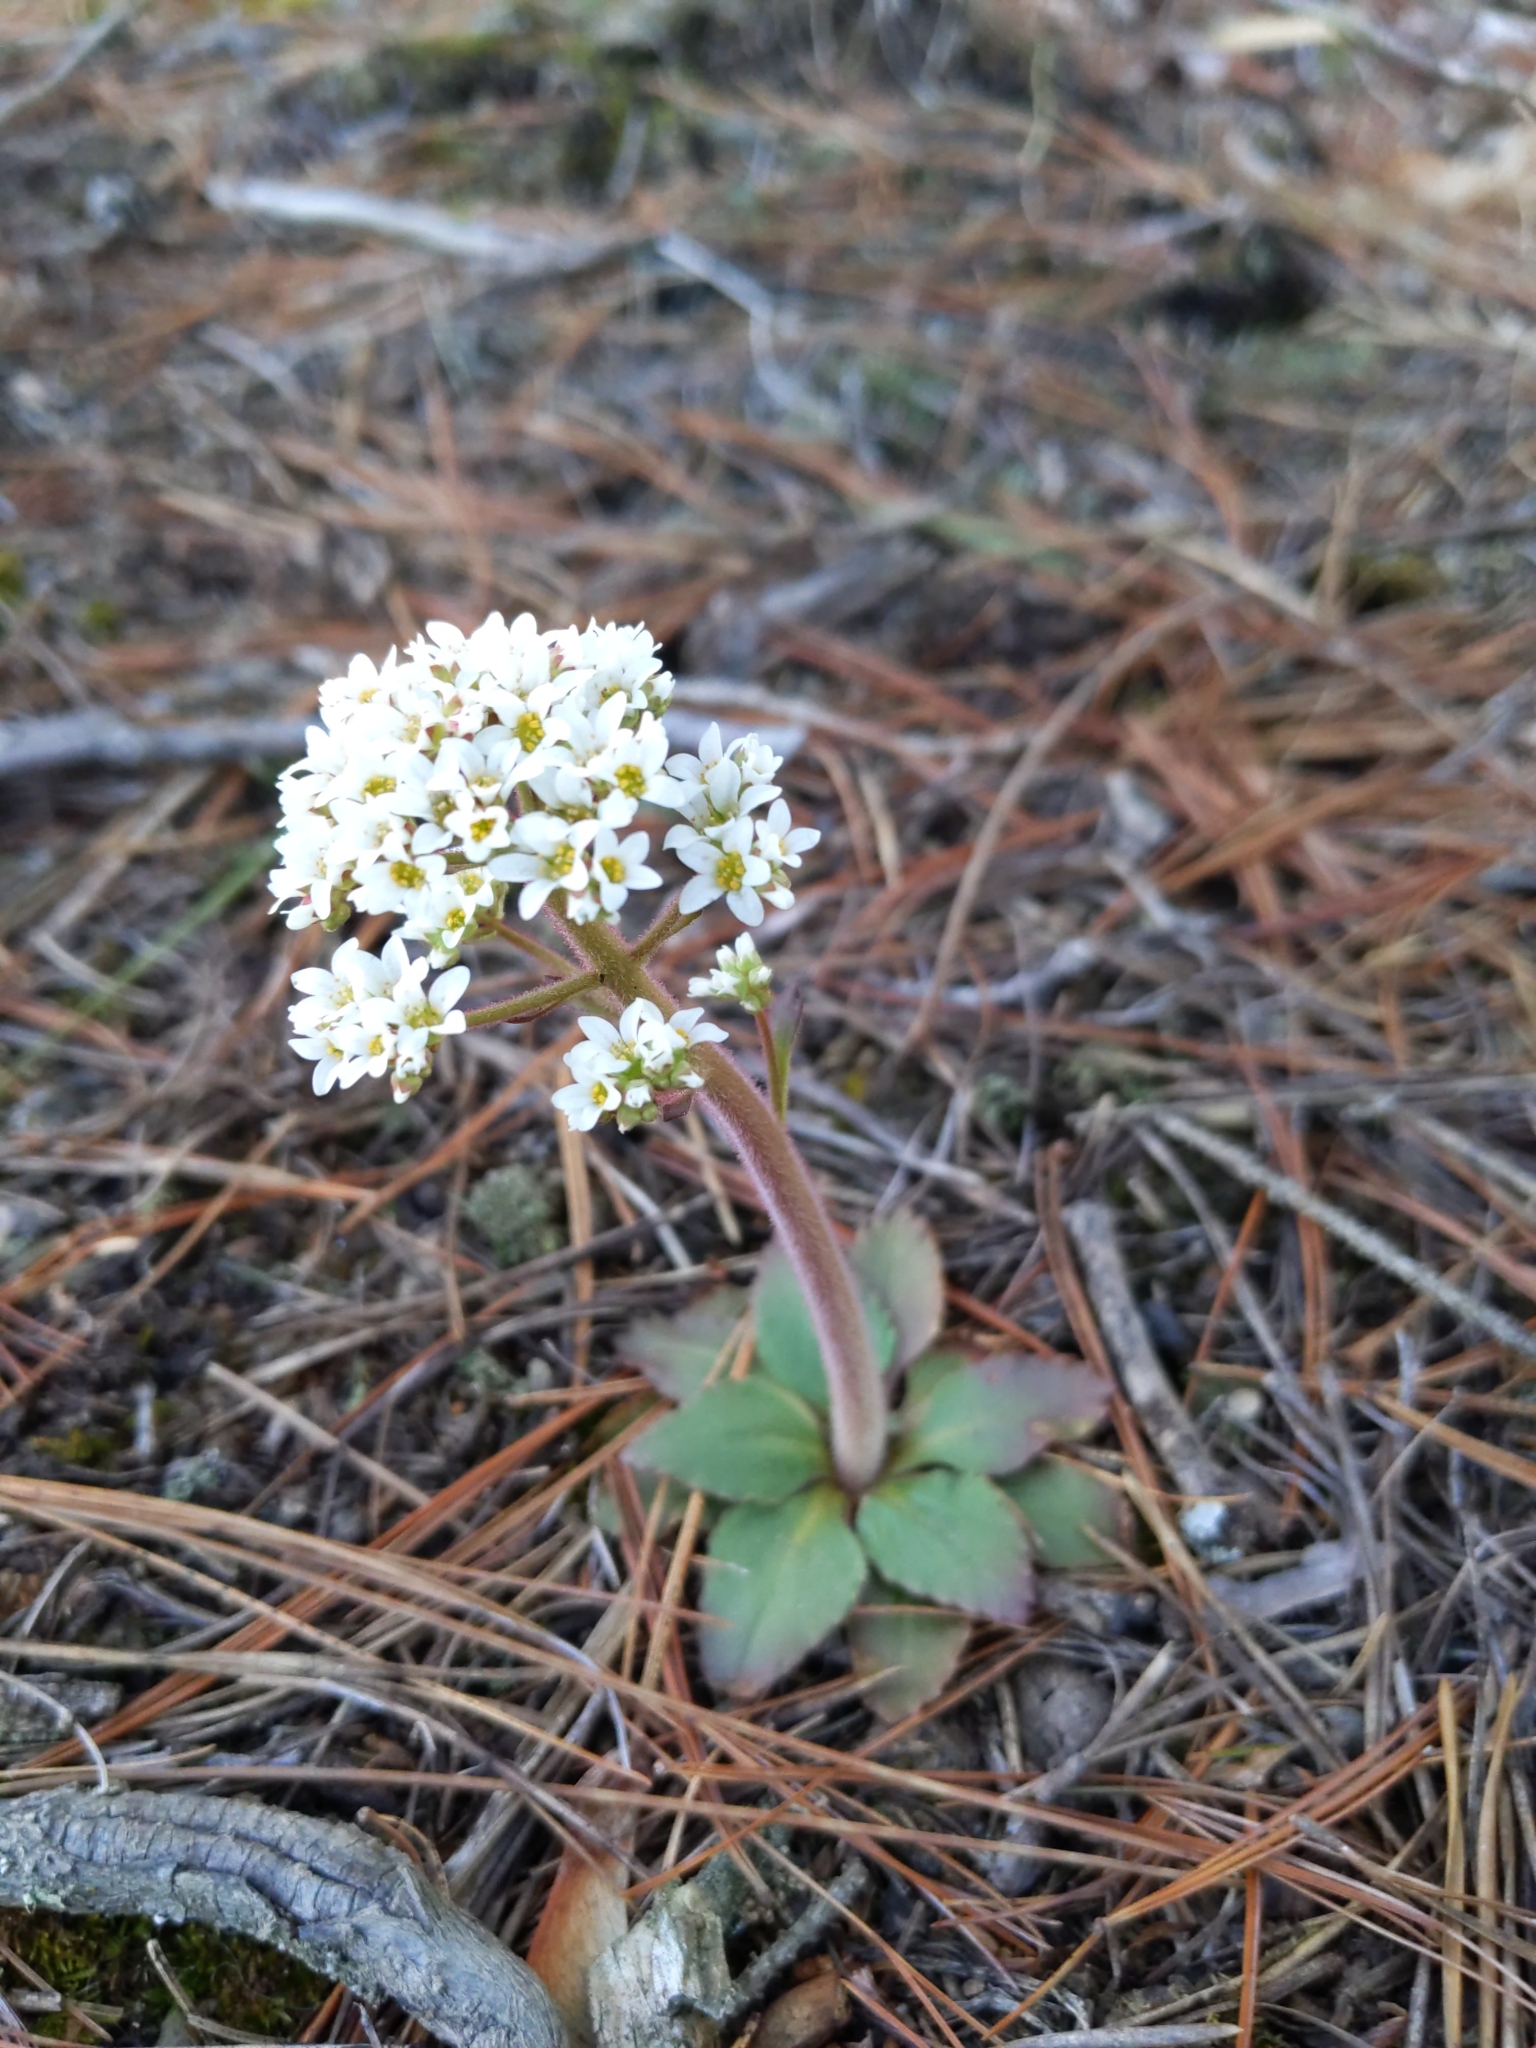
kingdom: Plantae
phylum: Tracheophyta
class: Magnoliopsida
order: Saxifragales
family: Saxifragaceae
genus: Micranthes
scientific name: Micranthes virginiensis
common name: Early saxifrage
